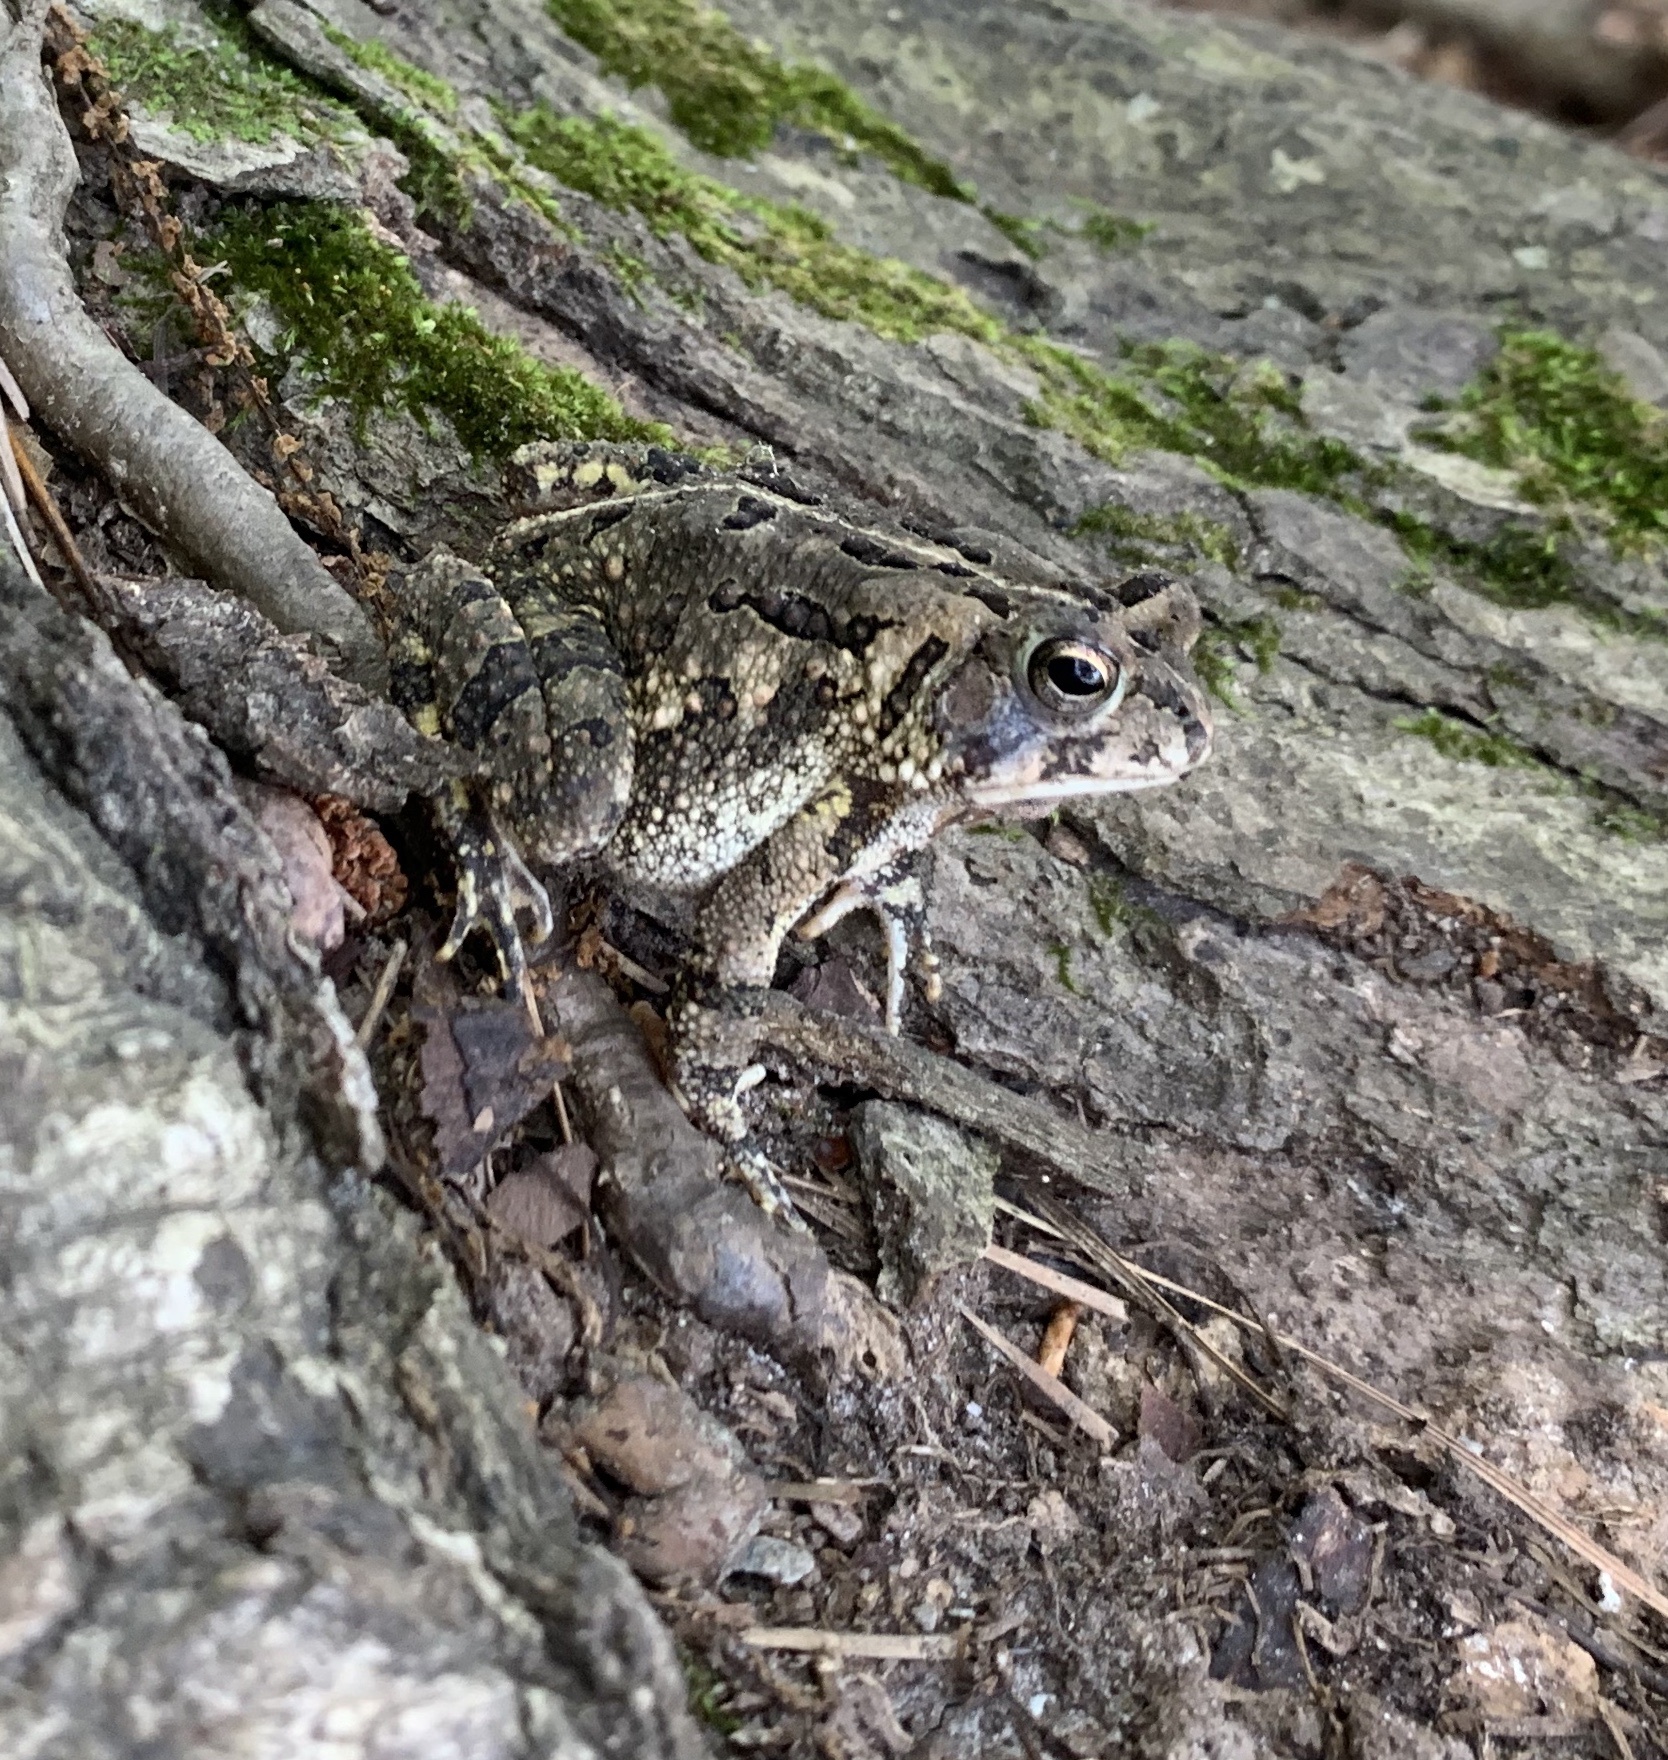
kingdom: Animalia
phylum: Chordata
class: Amphibia
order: Anura
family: Bufonidae
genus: Anaxyrus
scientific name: Anaxyrus fowleri
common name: Fowler's toad
